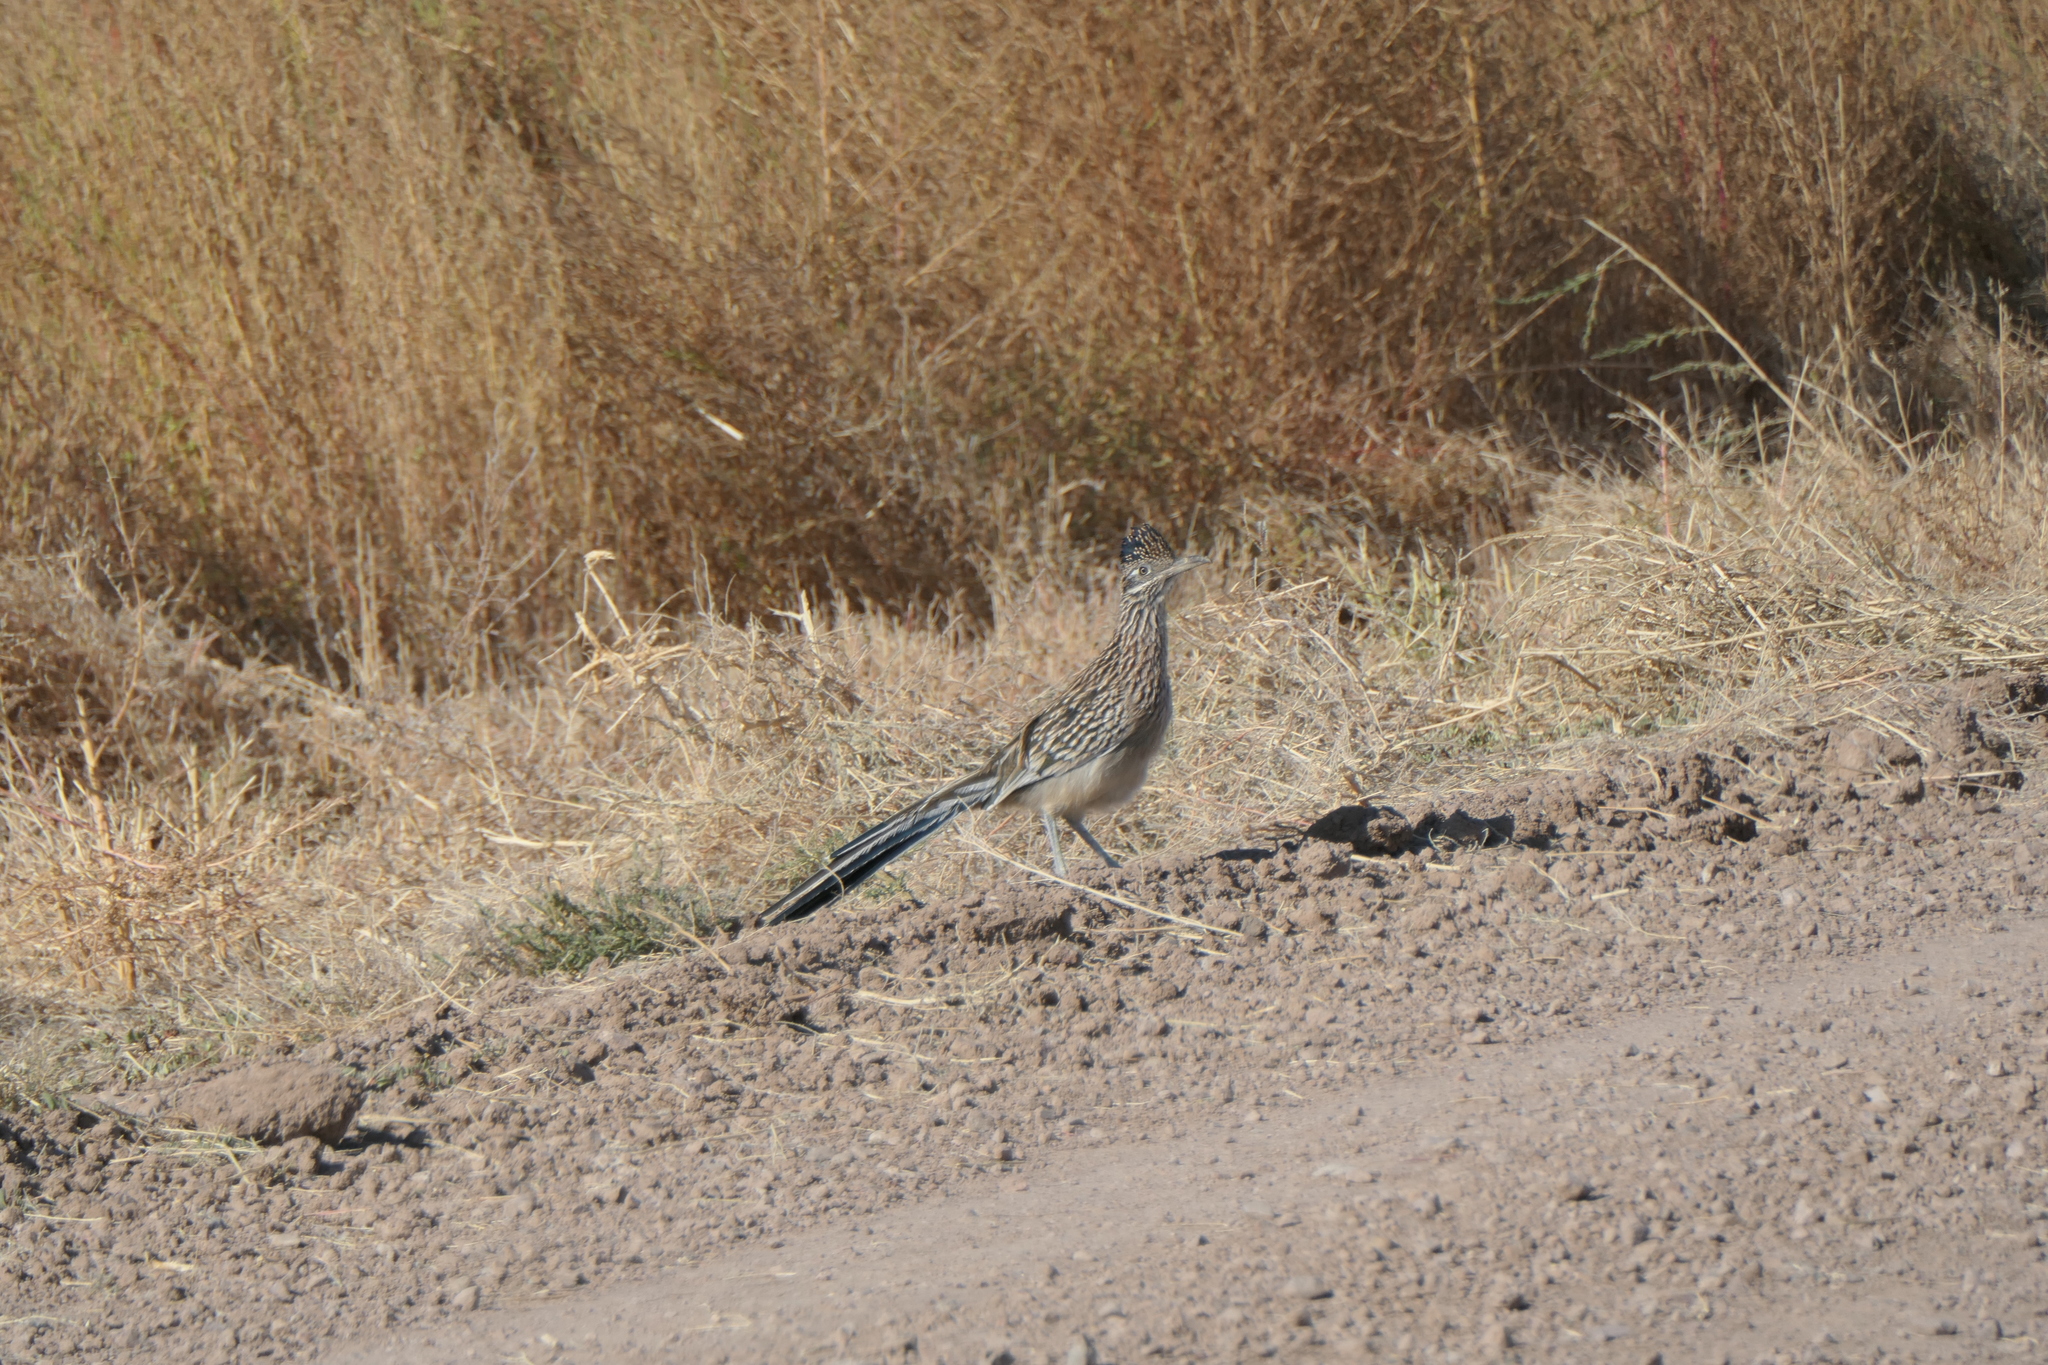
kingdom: Animalia
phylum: Chordata
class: Aves
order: Cuculiformes
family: Cuculidae
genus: Geococcyx
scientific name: Geococcyx californianus
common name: Greater roadrunner
